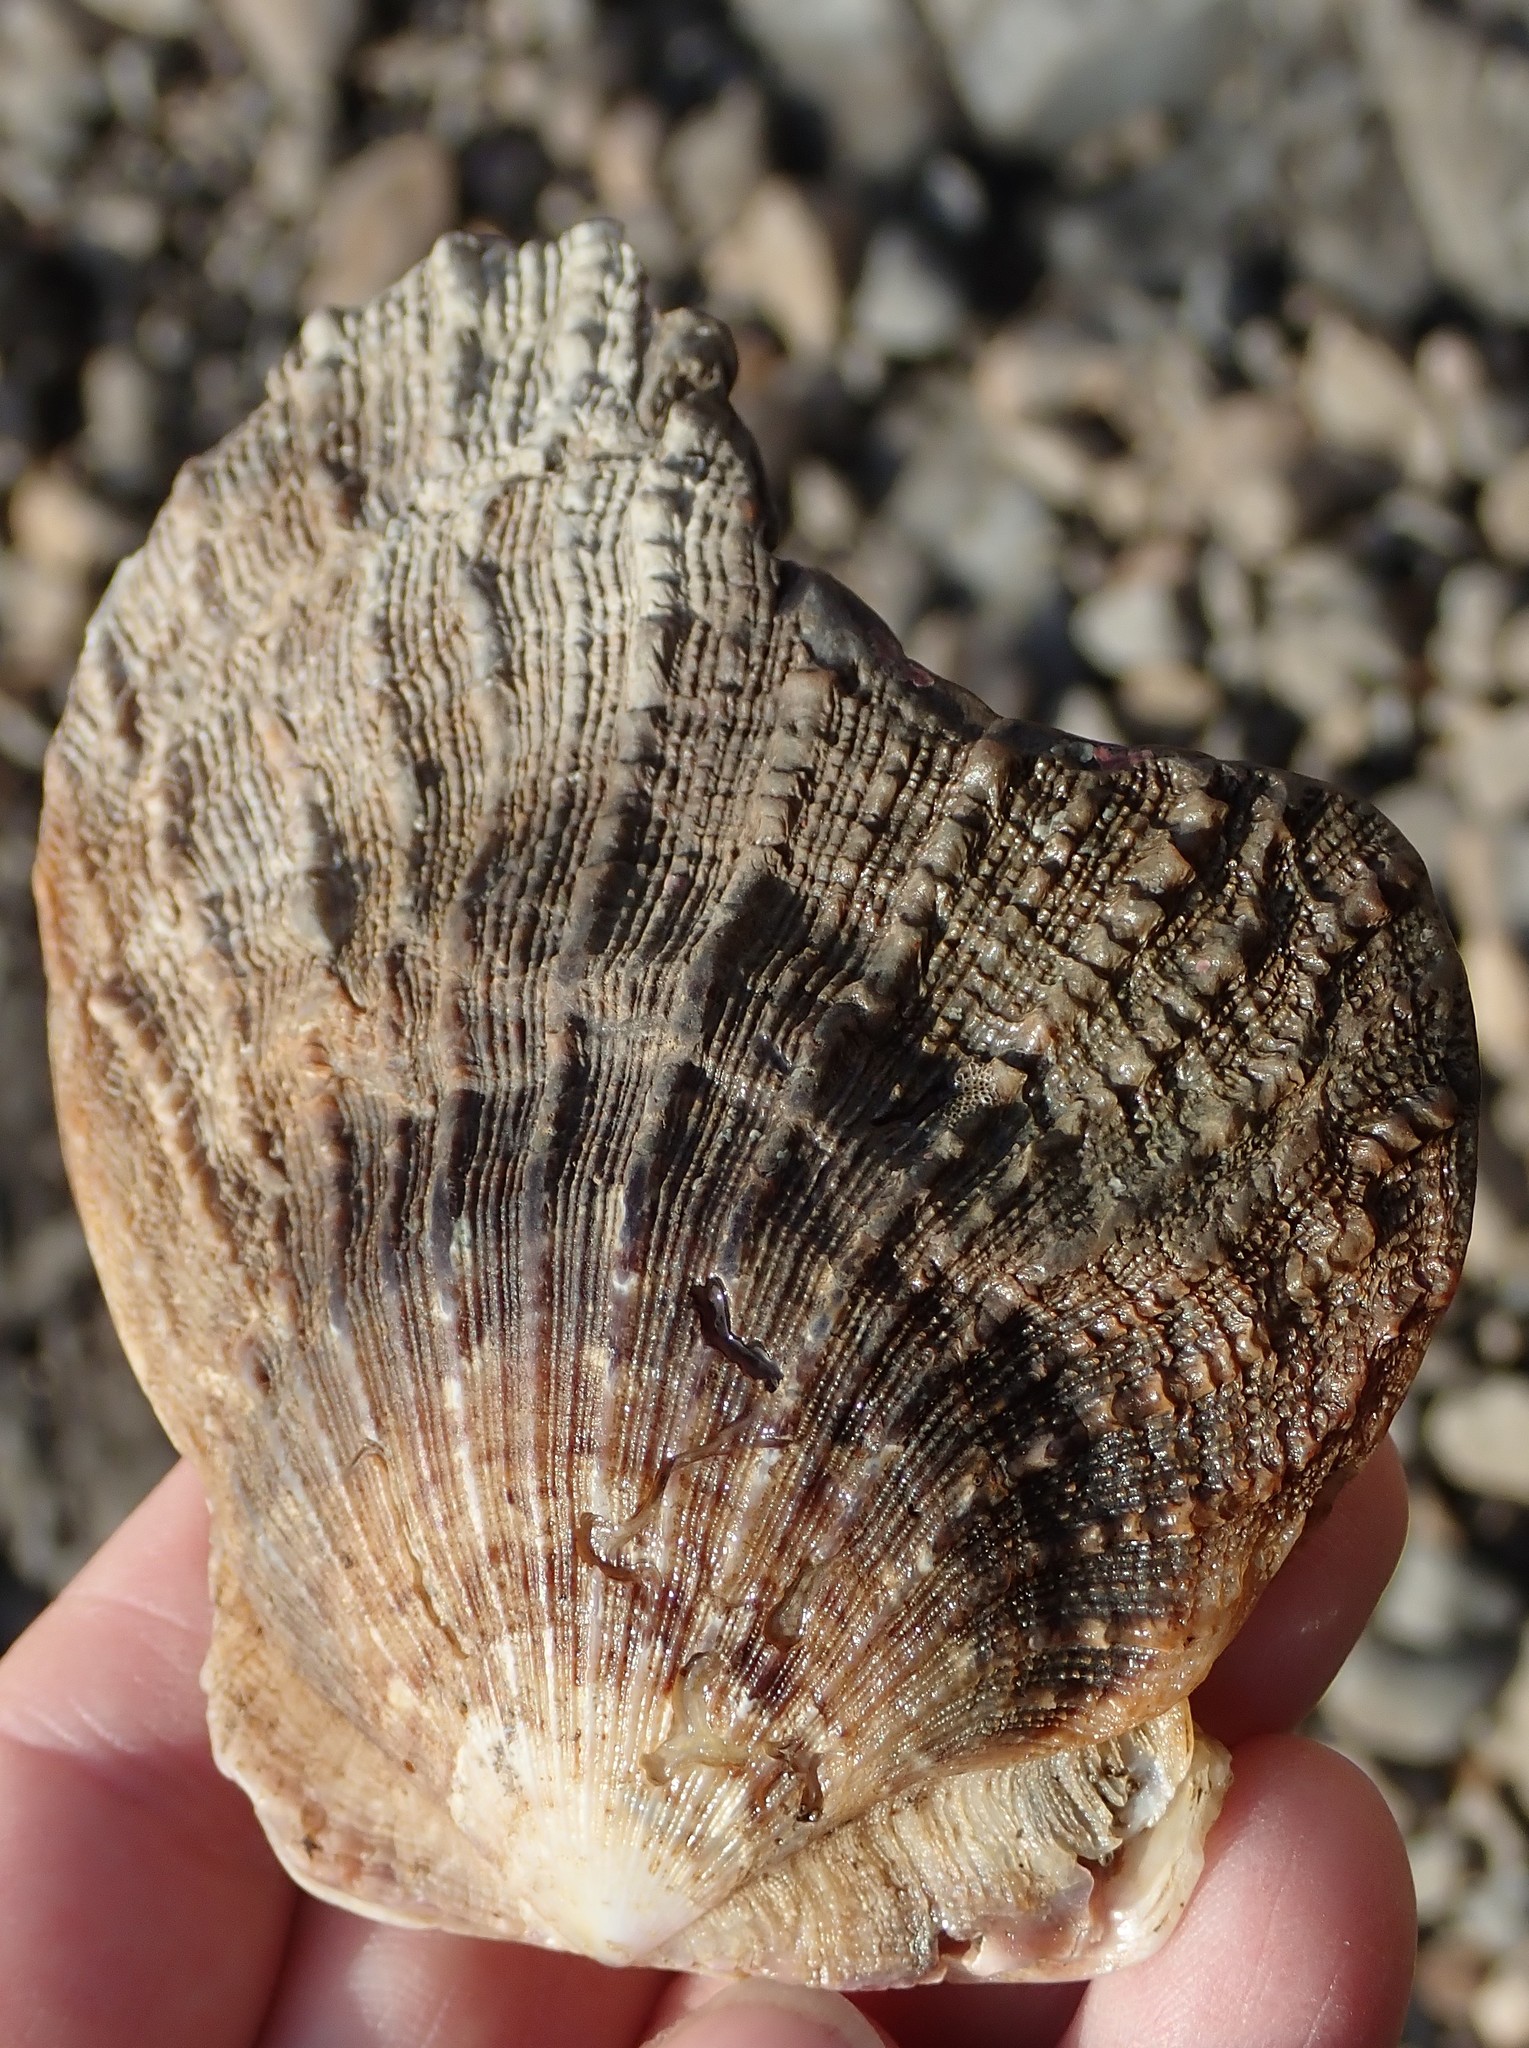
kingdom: Animalia
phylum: Mollusca
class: Bivalvia
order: Pectinida
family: Pectinidae
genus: Crassadoma
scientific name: Crassadoma gigantea
